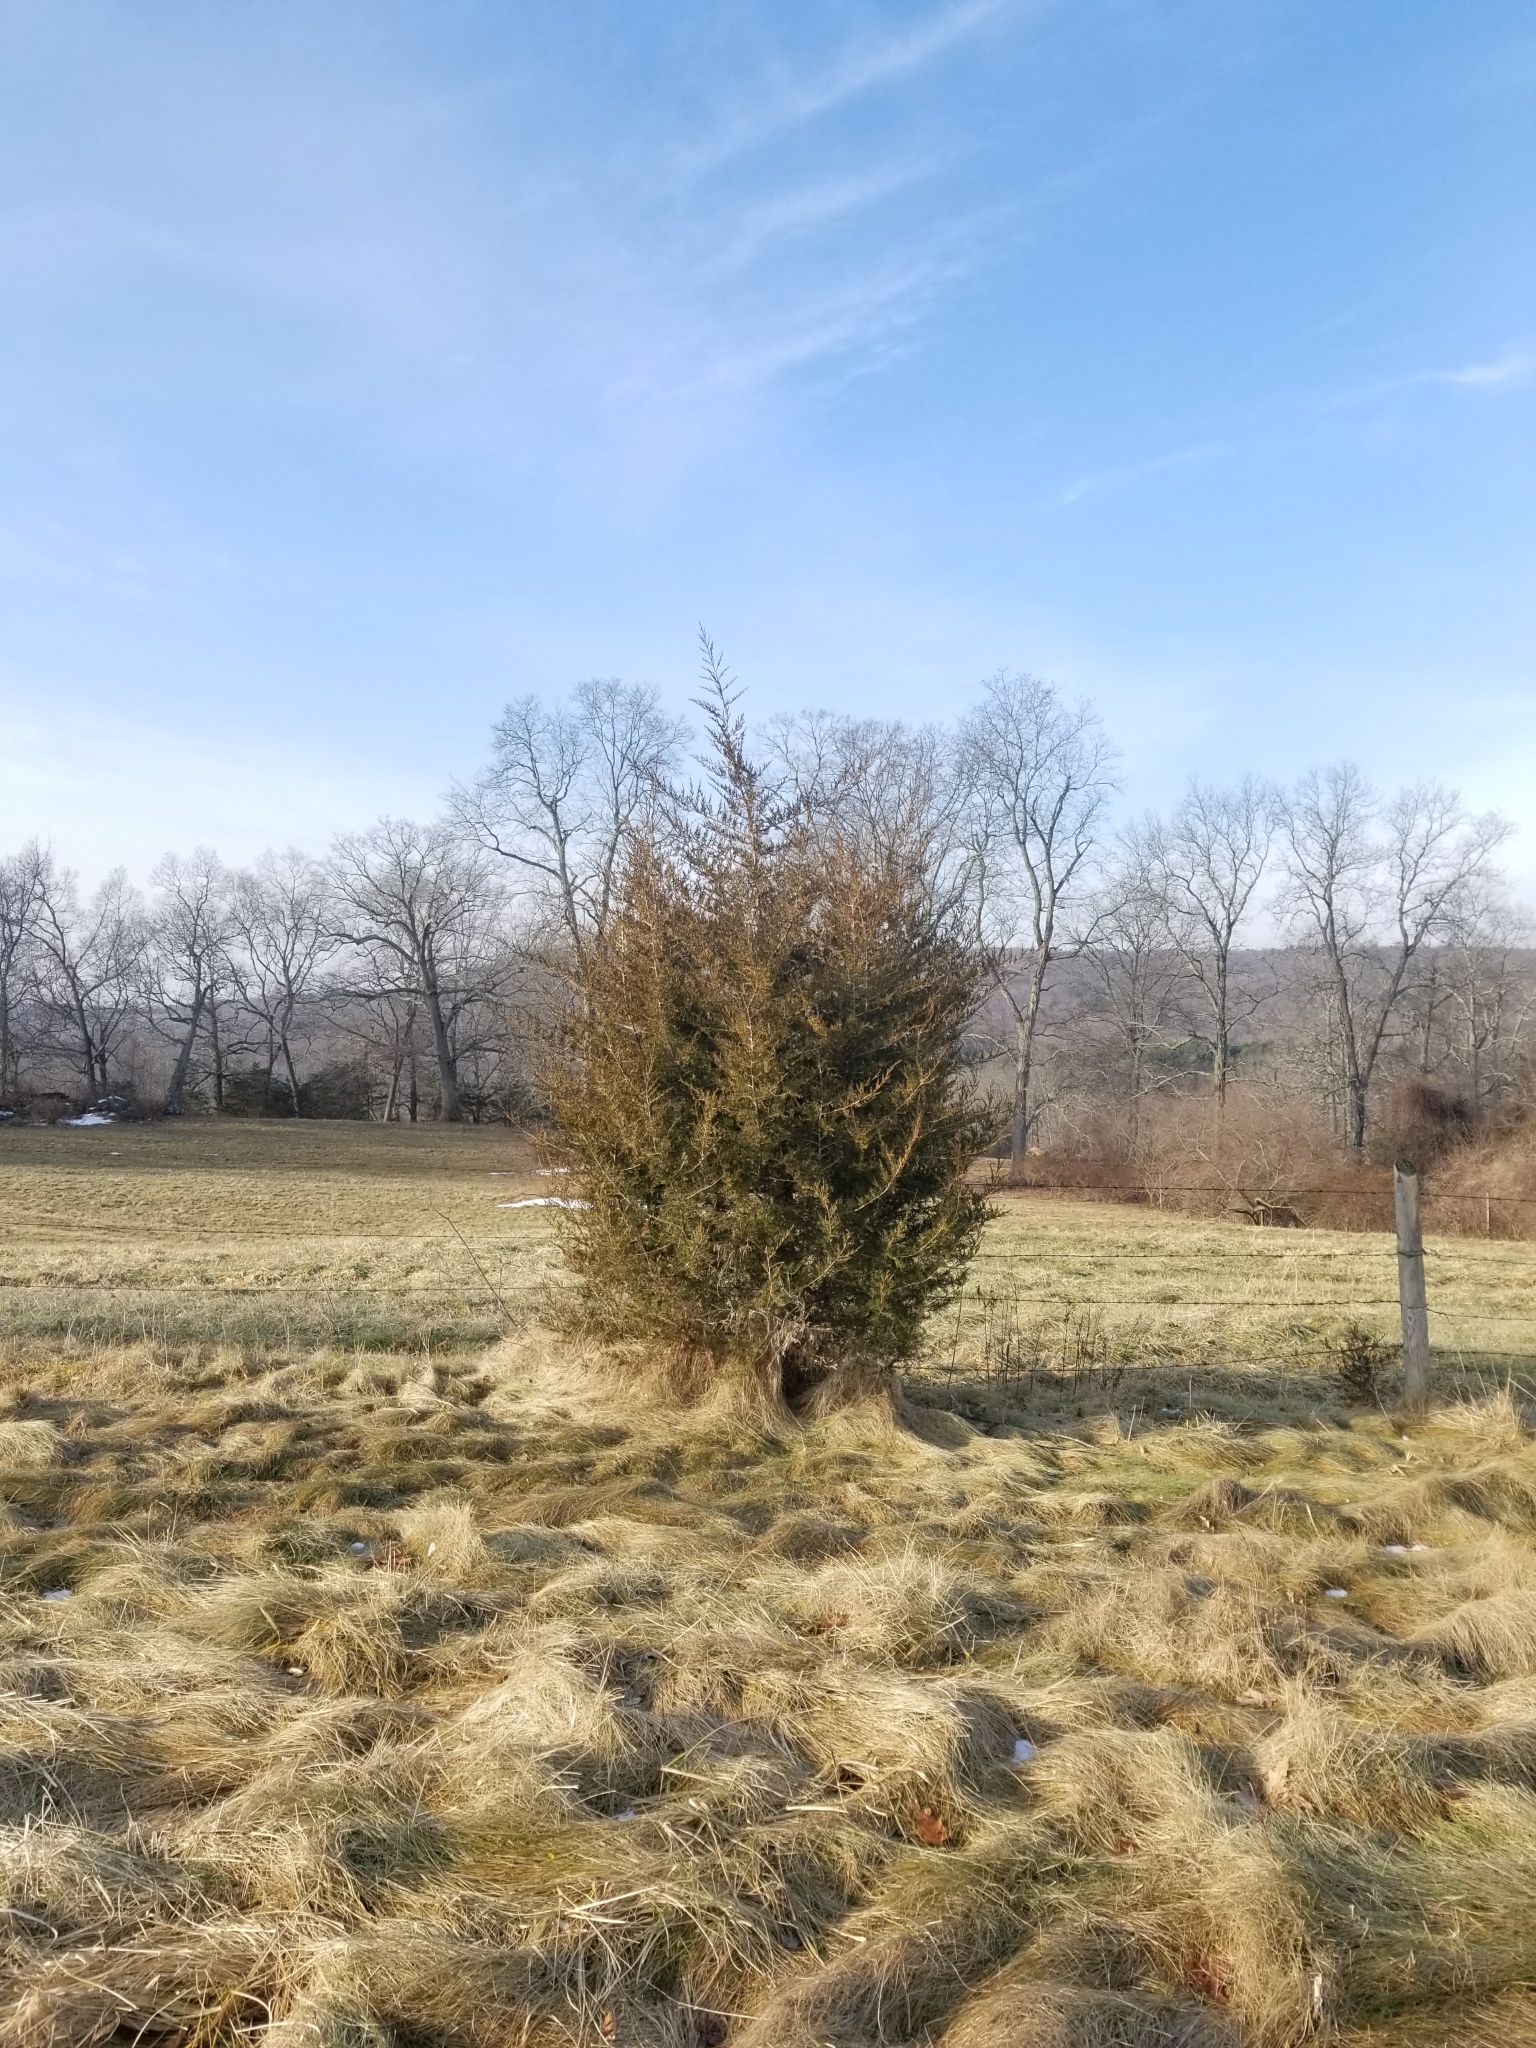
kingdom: Plantae
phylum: Tracheophyta
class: Pinopsida
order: Pinales
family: Cupressaceae
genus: Juniperus
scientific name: Juniperus virginiana
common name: Red juniper
